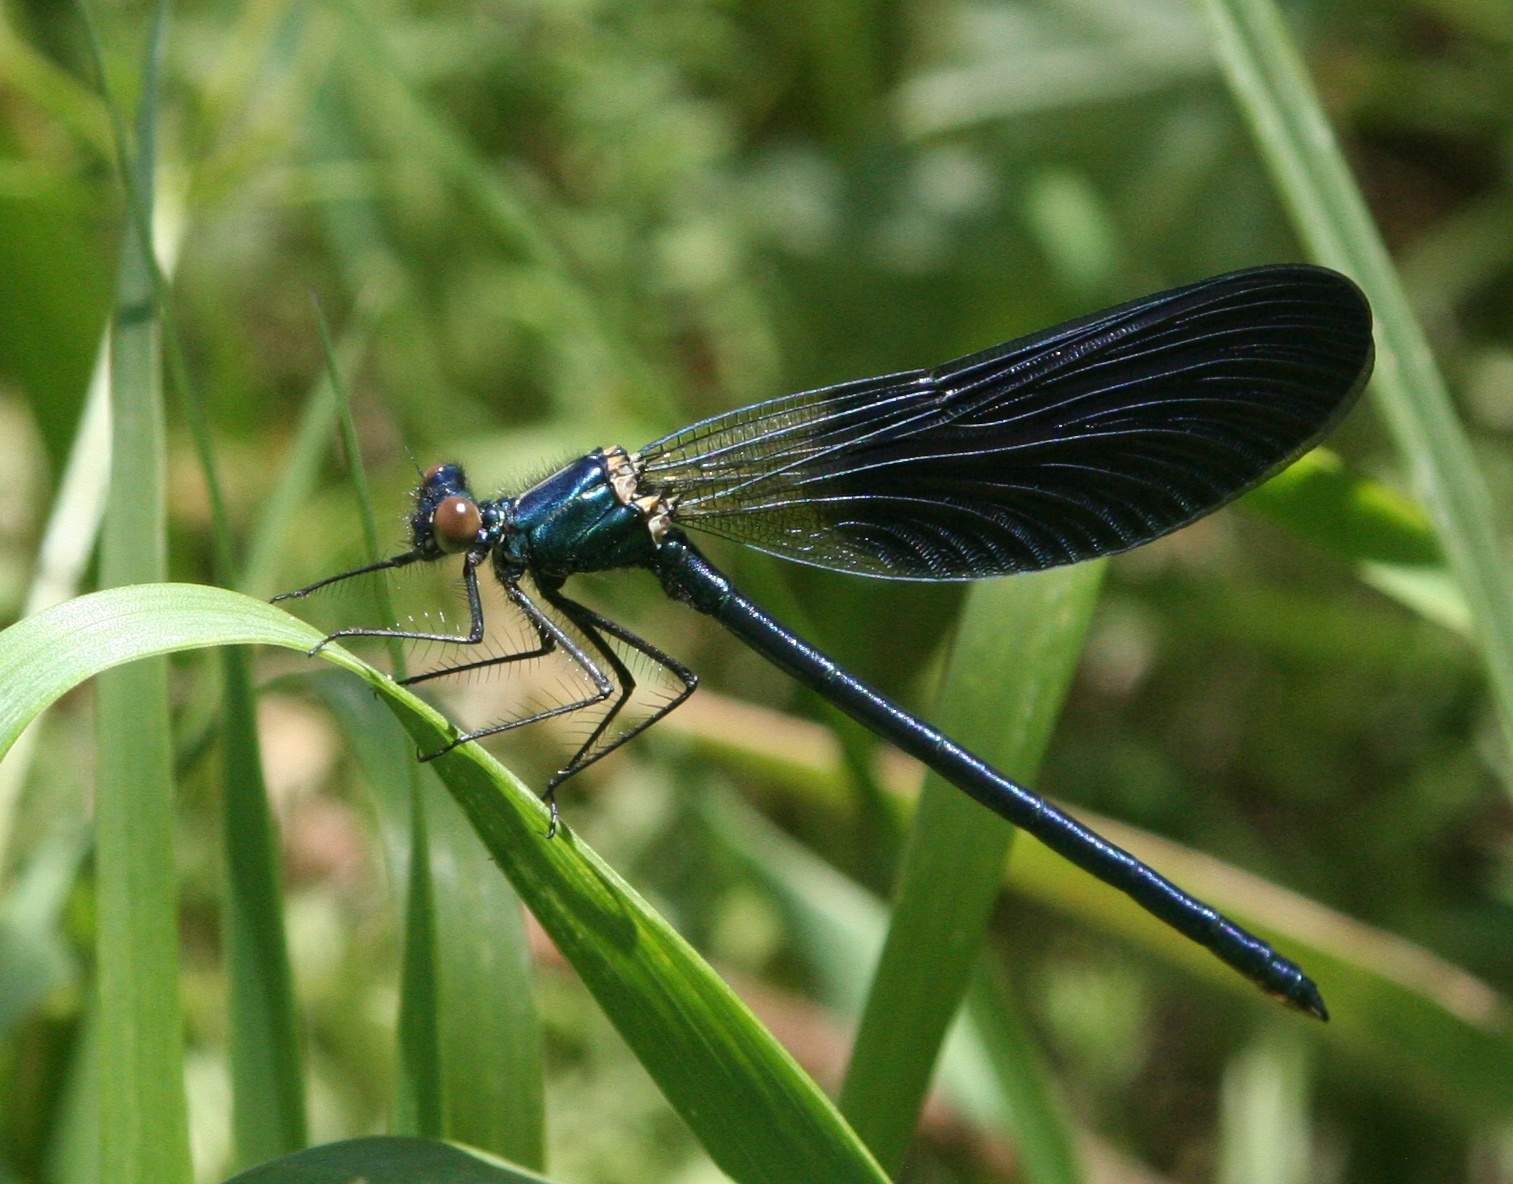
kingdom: Animalia
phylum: Arthropoda
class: Insecta
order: Odonata
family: Calopterygidae
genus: Calopteryx
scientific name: Calopteryx splendens
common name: Banded demoiselle
